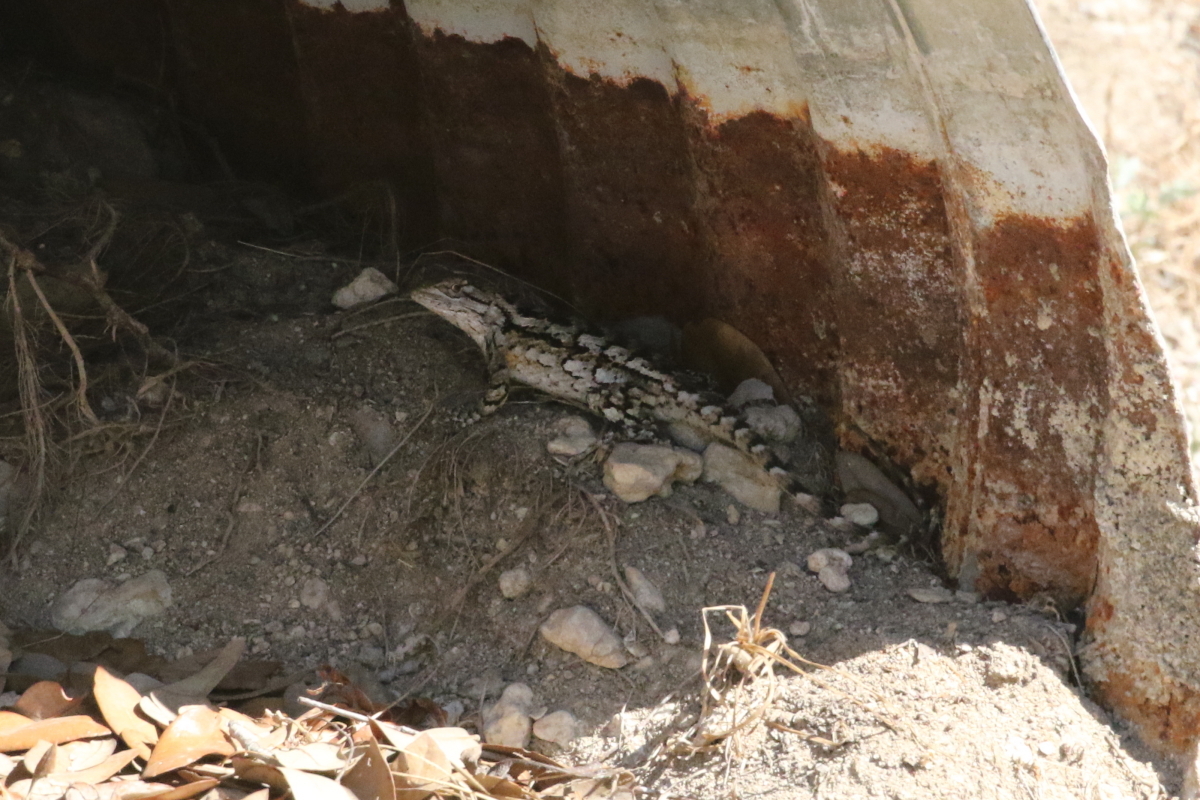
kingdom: Animalia
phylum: Chordata
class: Squamata
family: Phrynosomatidae
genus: Sceloporus
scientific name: Sceloporus olivaceus
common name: Texas spiny lizard
